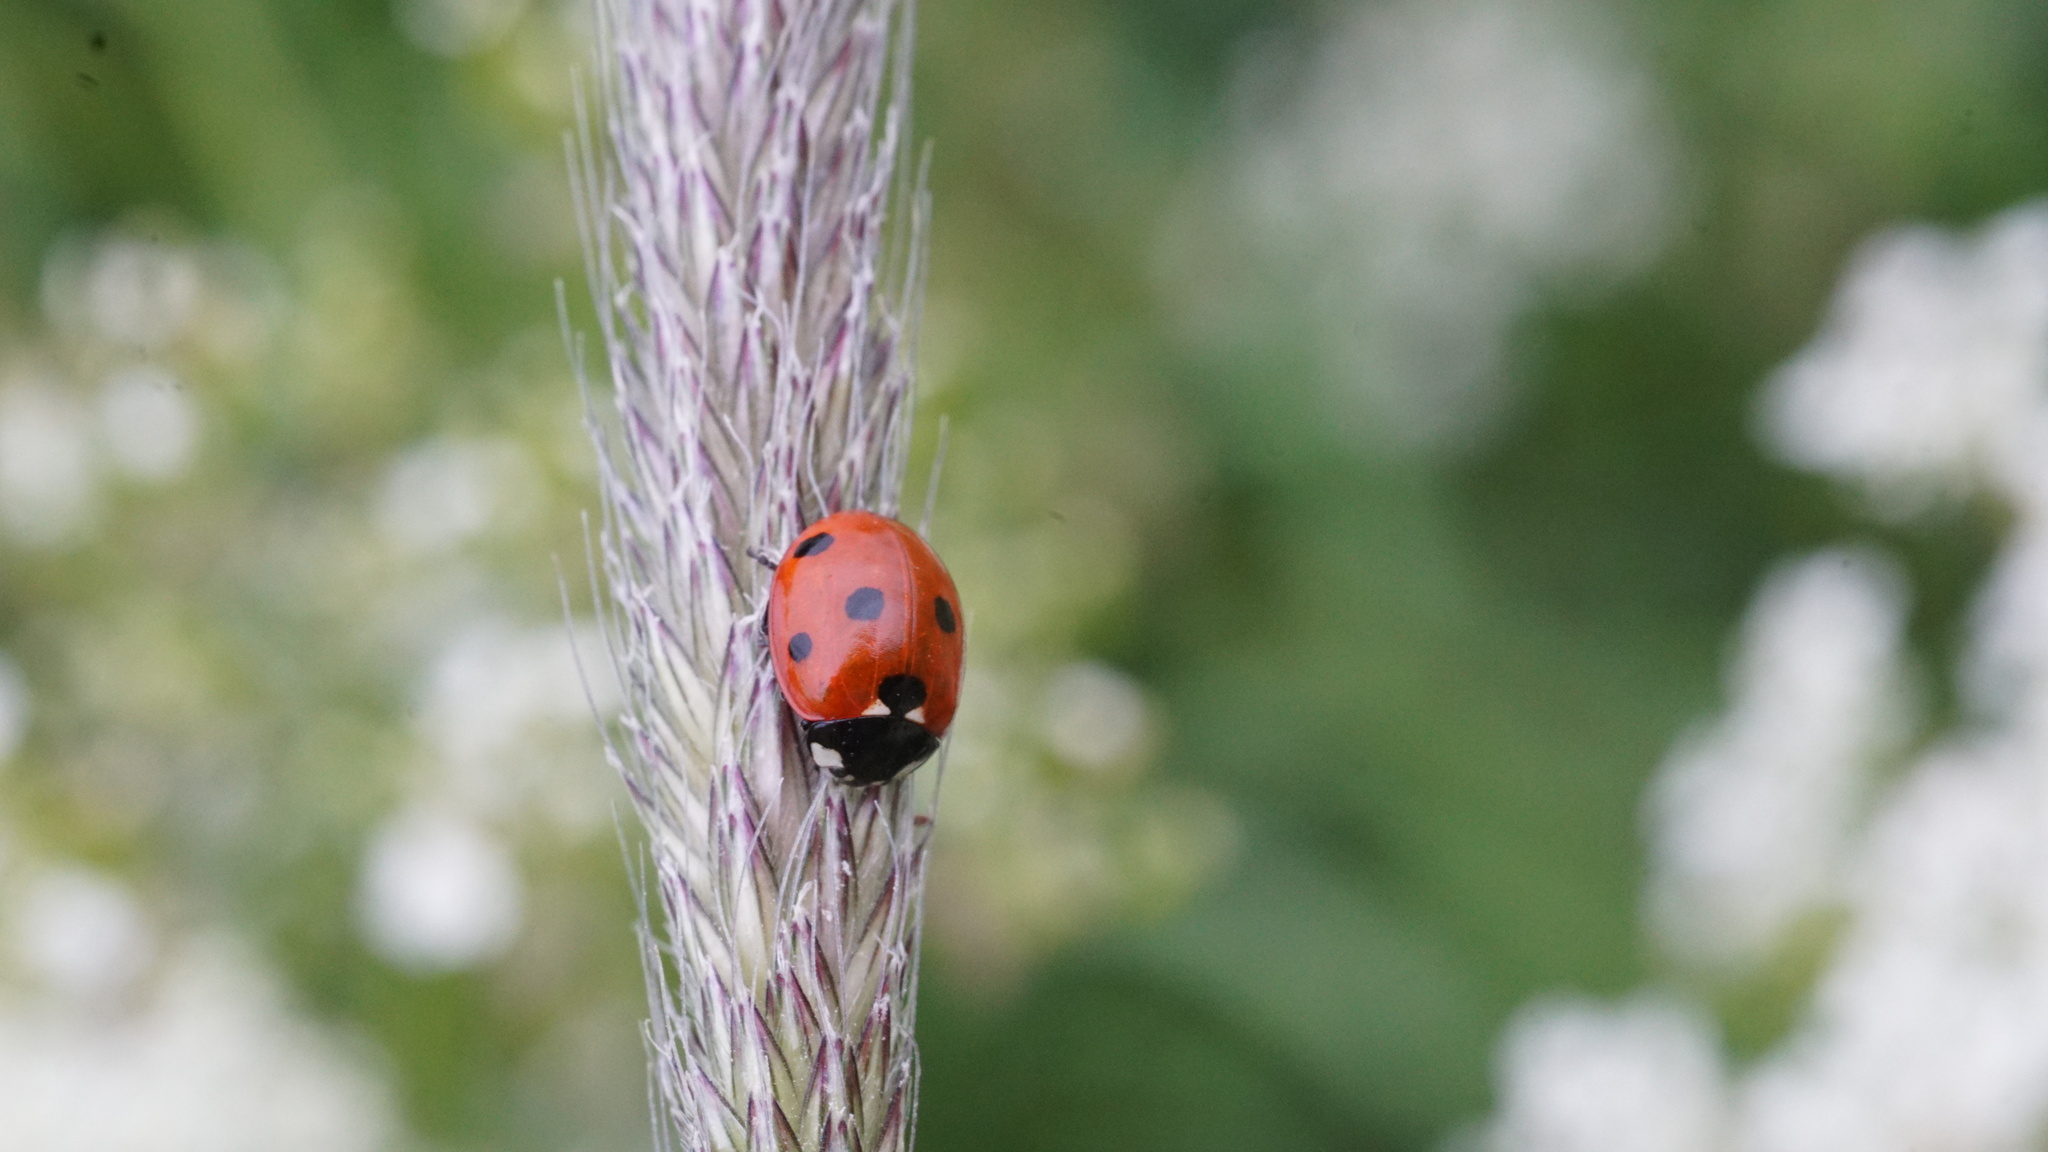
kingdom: Animalia
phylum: Arthropoda
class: Insecta
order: Coleoptera
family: Coccinellidae
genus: Coccinella
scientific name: Coccinella septempunctata
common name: Sevenspotted lady beetle
